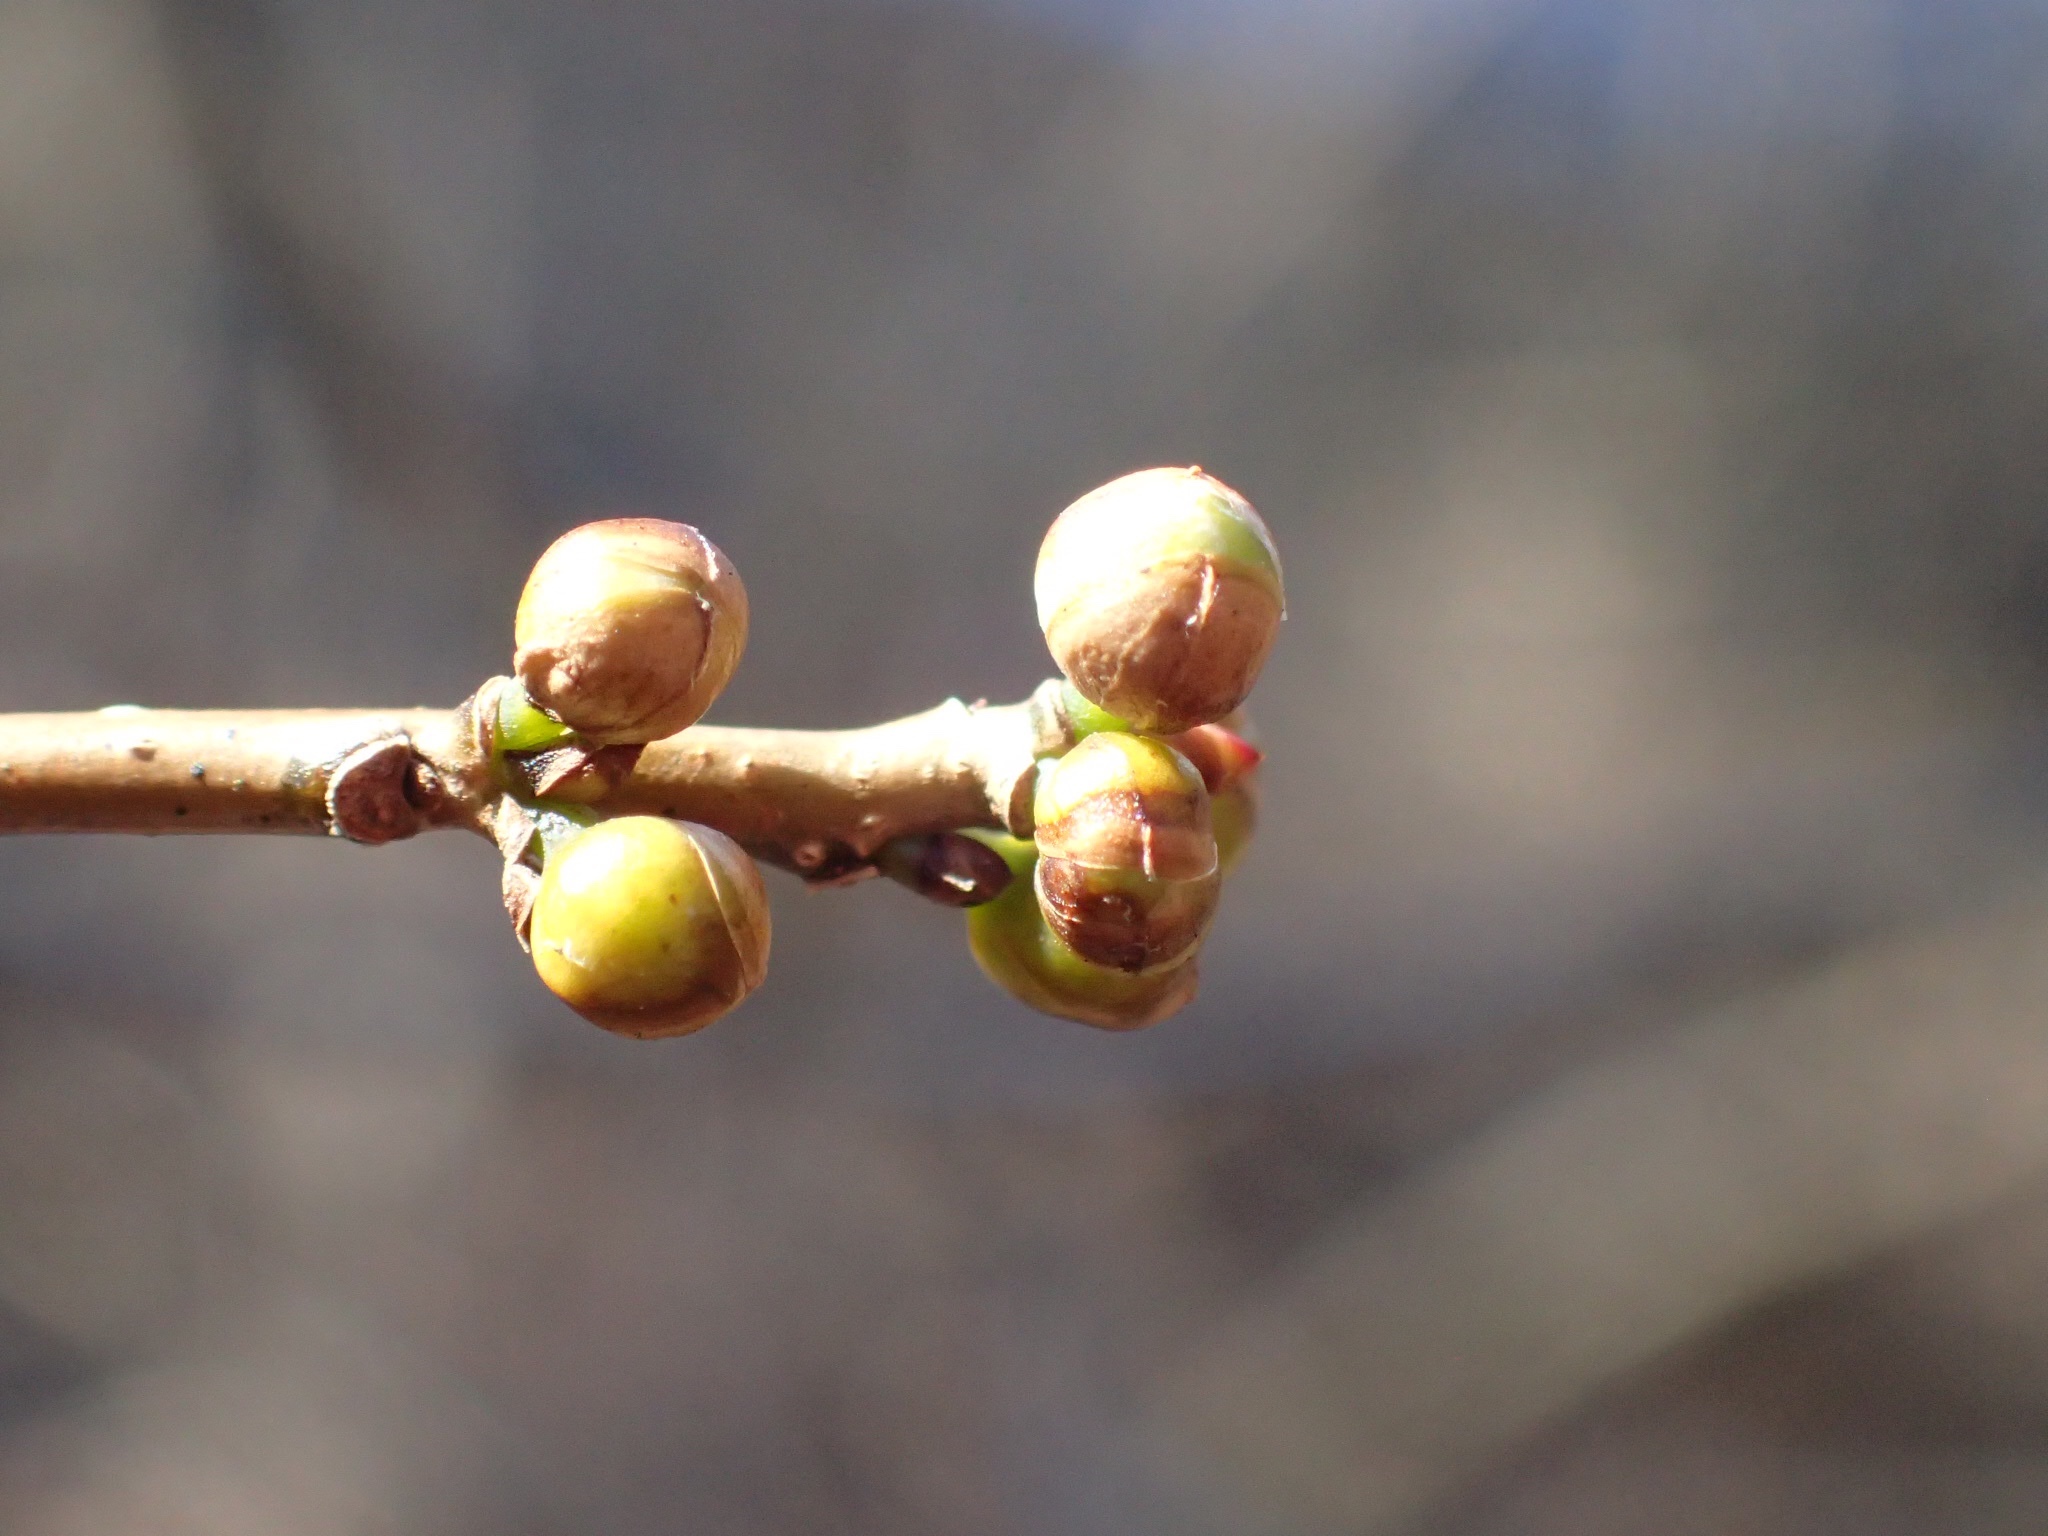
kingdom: Plantae
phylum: Tracheophyta
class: Magnoliopsida
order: Laurales
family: Lauraceae
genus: Lindera
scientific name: Lindera benzoin
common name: Spicebush
